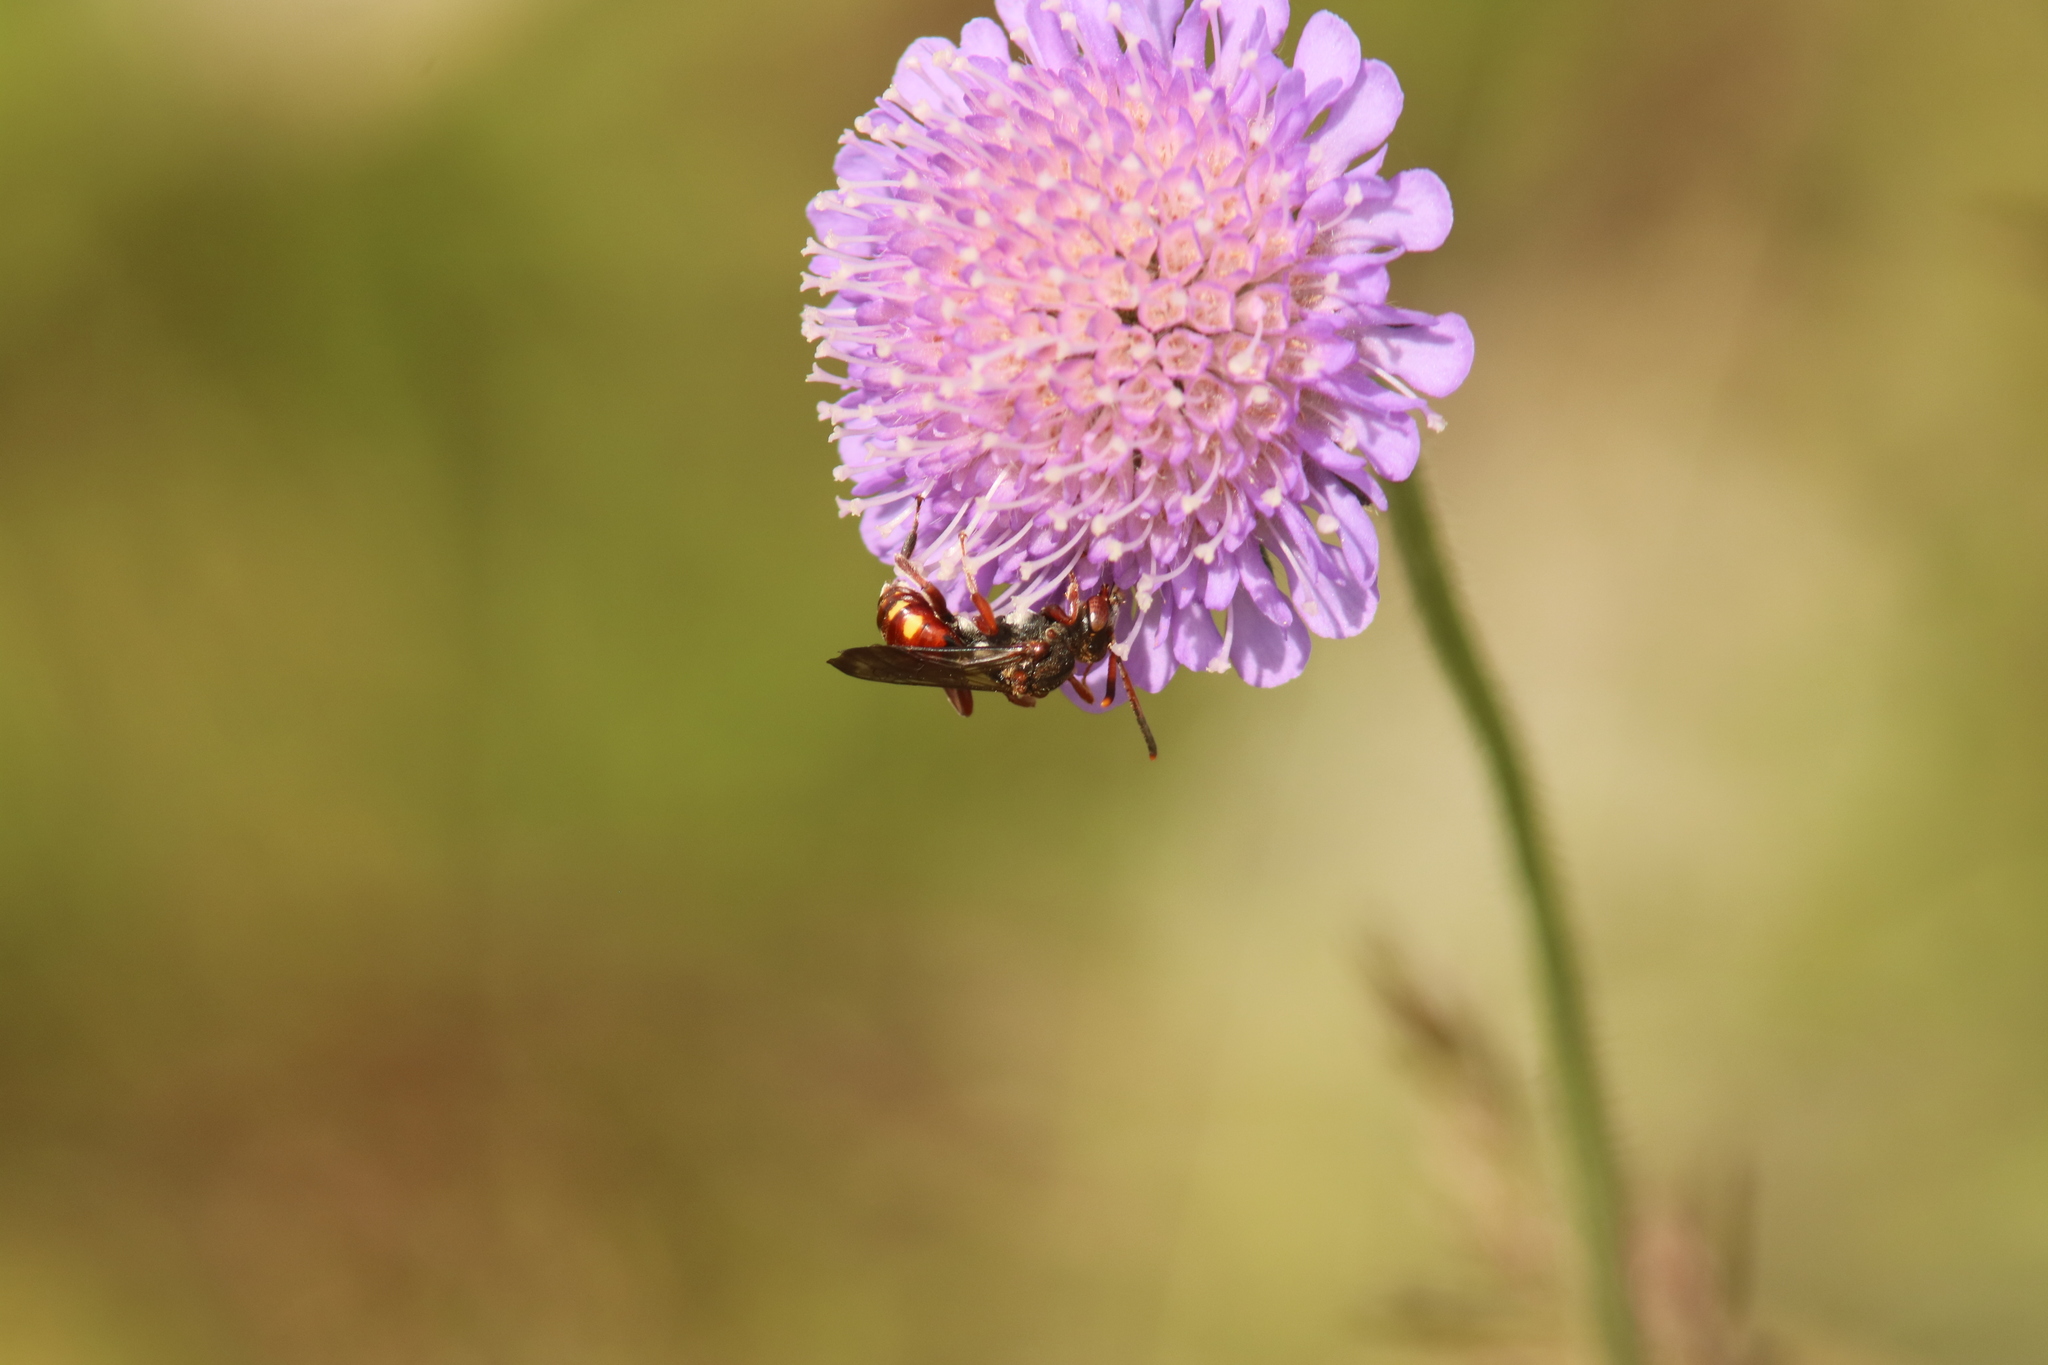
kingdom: Animalia
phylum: Arthropoda
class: Insecta
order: Hymenoptera
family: Apidae
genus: Nomada
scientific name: Nomada armata
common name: Armed nomad bee
